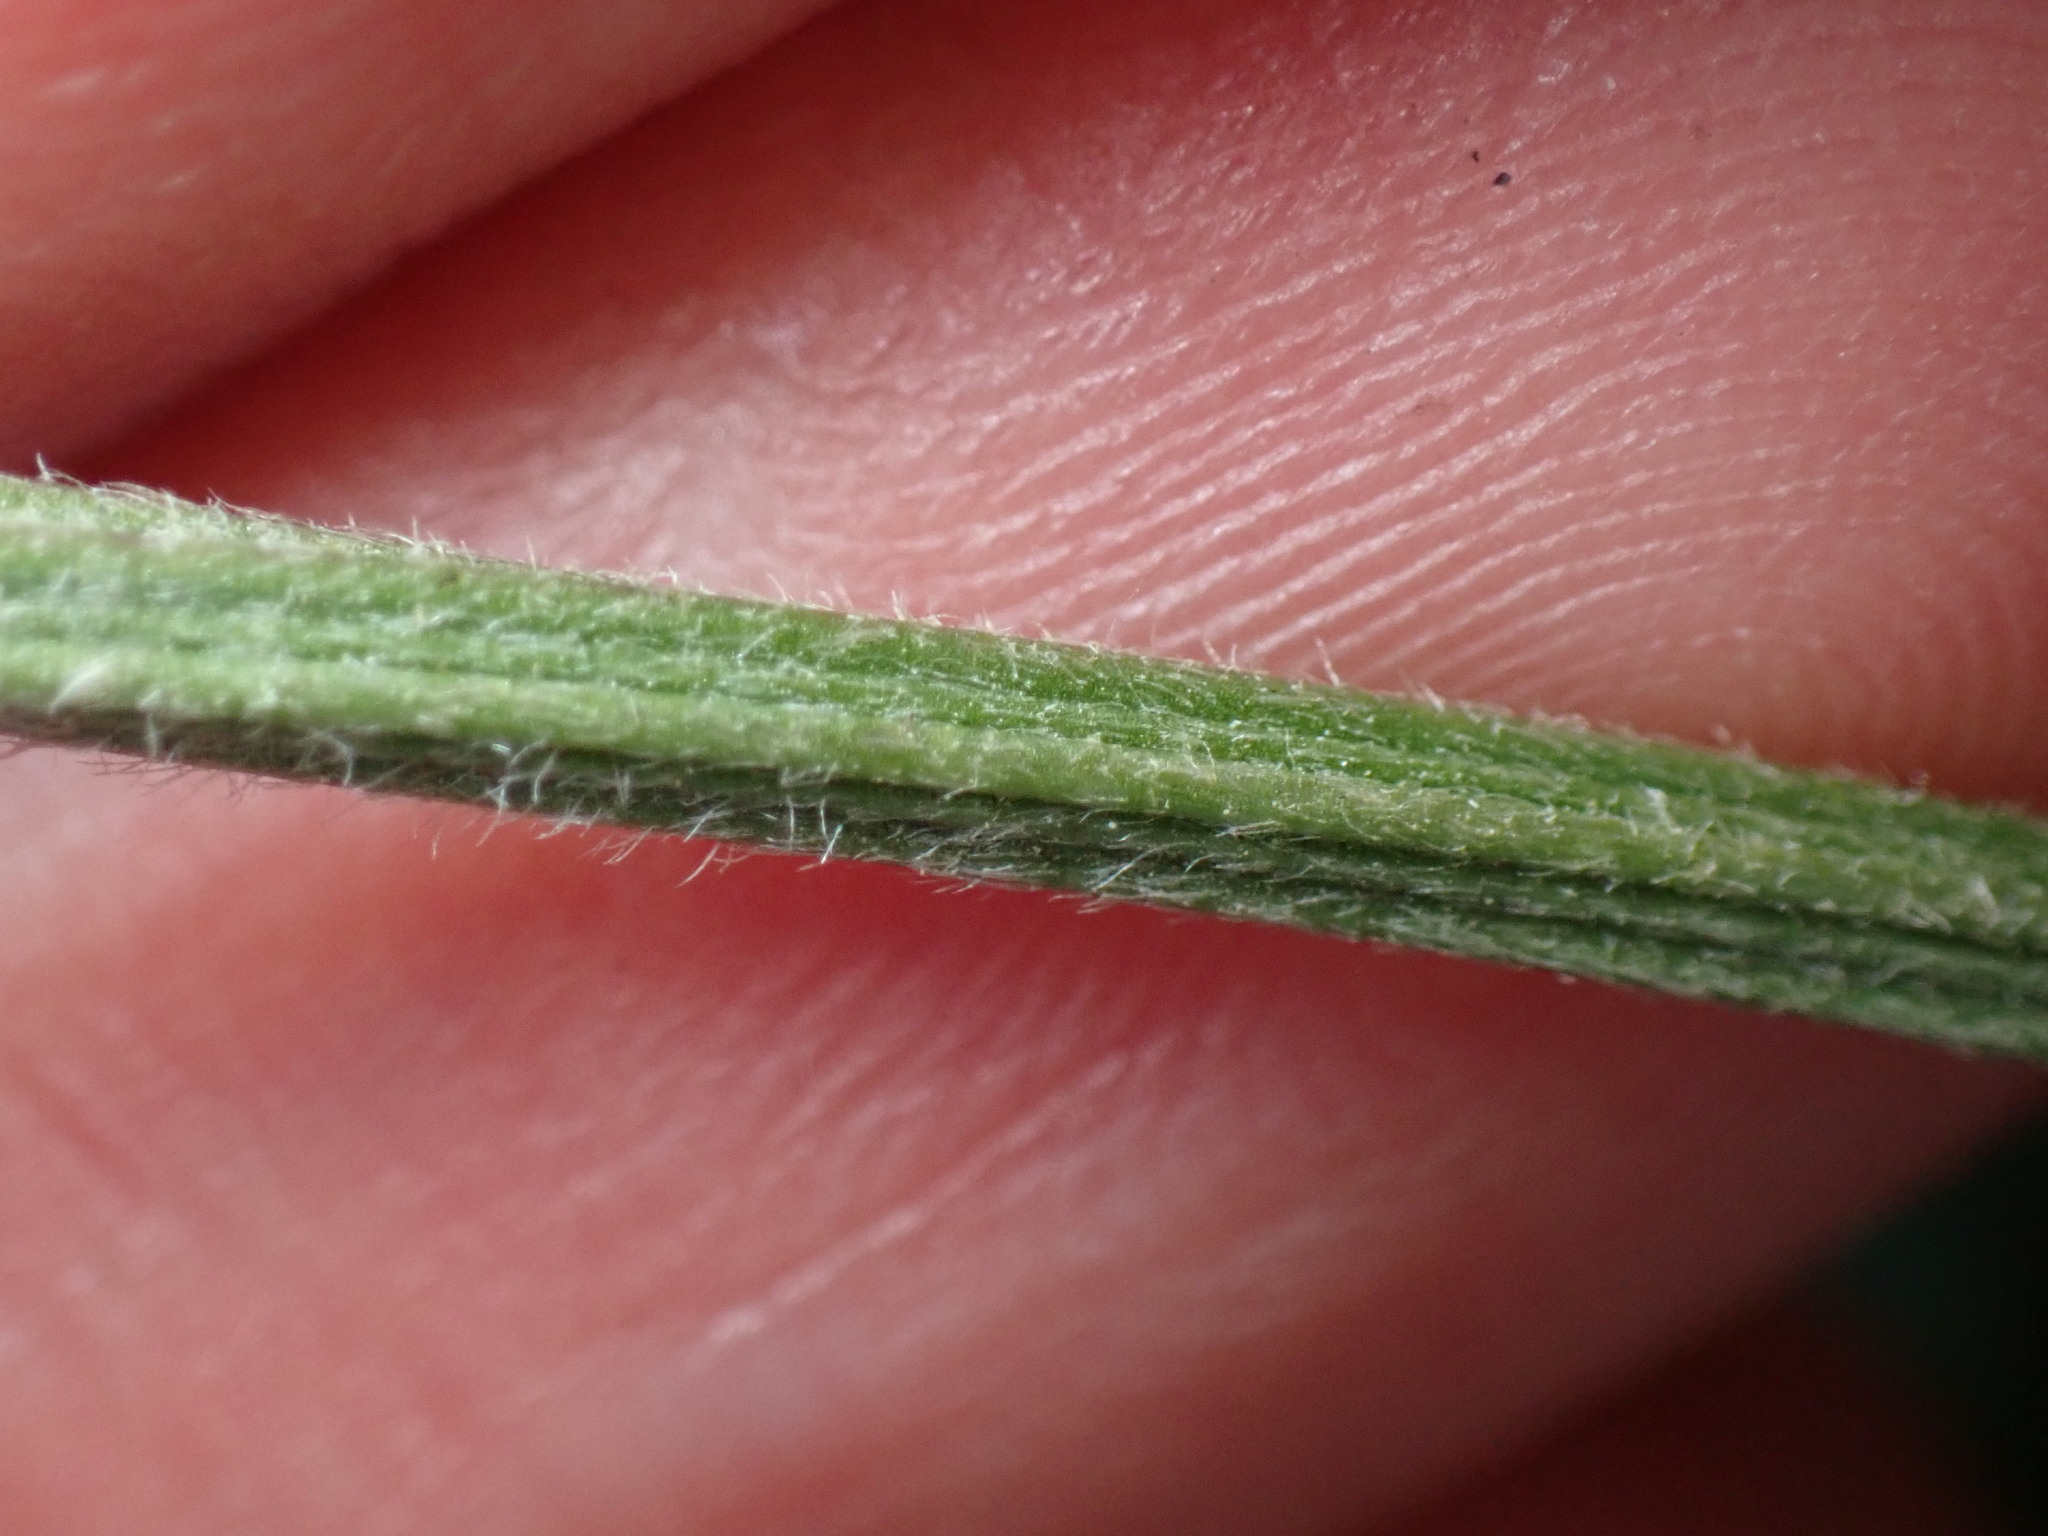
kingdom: Plantae
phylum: Tracheophyta
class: Magnoliopsida
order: Lamiales
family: Plantaginaceae
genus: Plantago
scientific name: Plantago lanceolata
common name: Ribwort plantain
